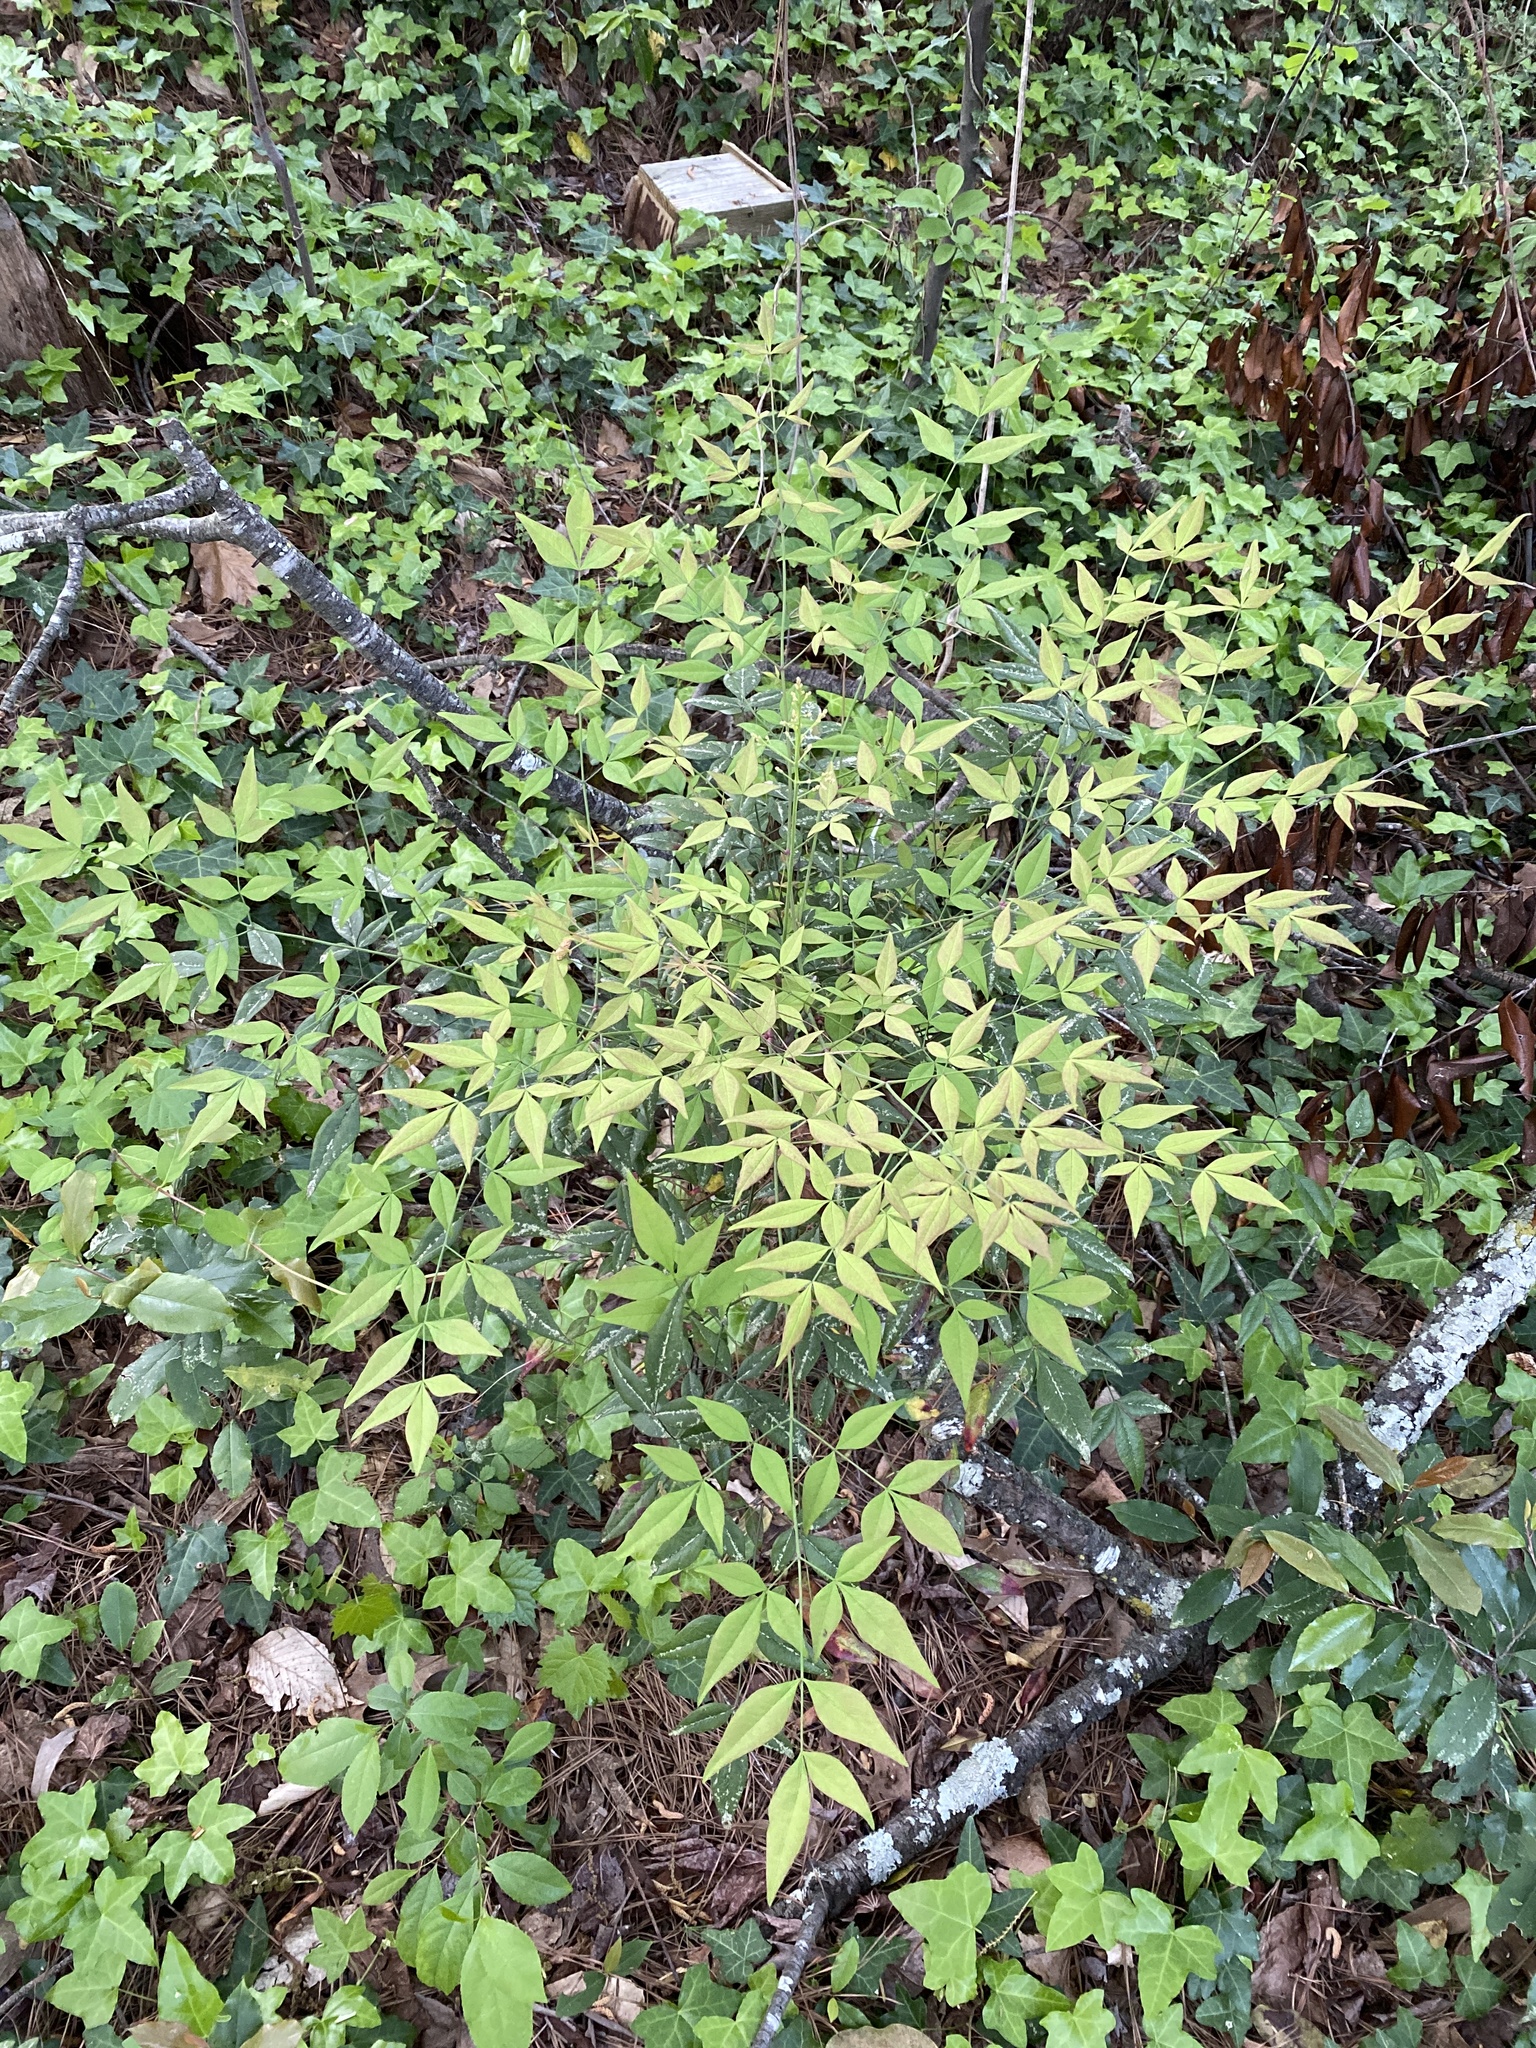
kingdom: Plantae
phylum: Tracheophyta
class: Magnoliopsida
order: Ranunculales
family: Berberidaceae
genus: Nandina
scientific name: Nandina domestica
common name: Sacred bamboo
